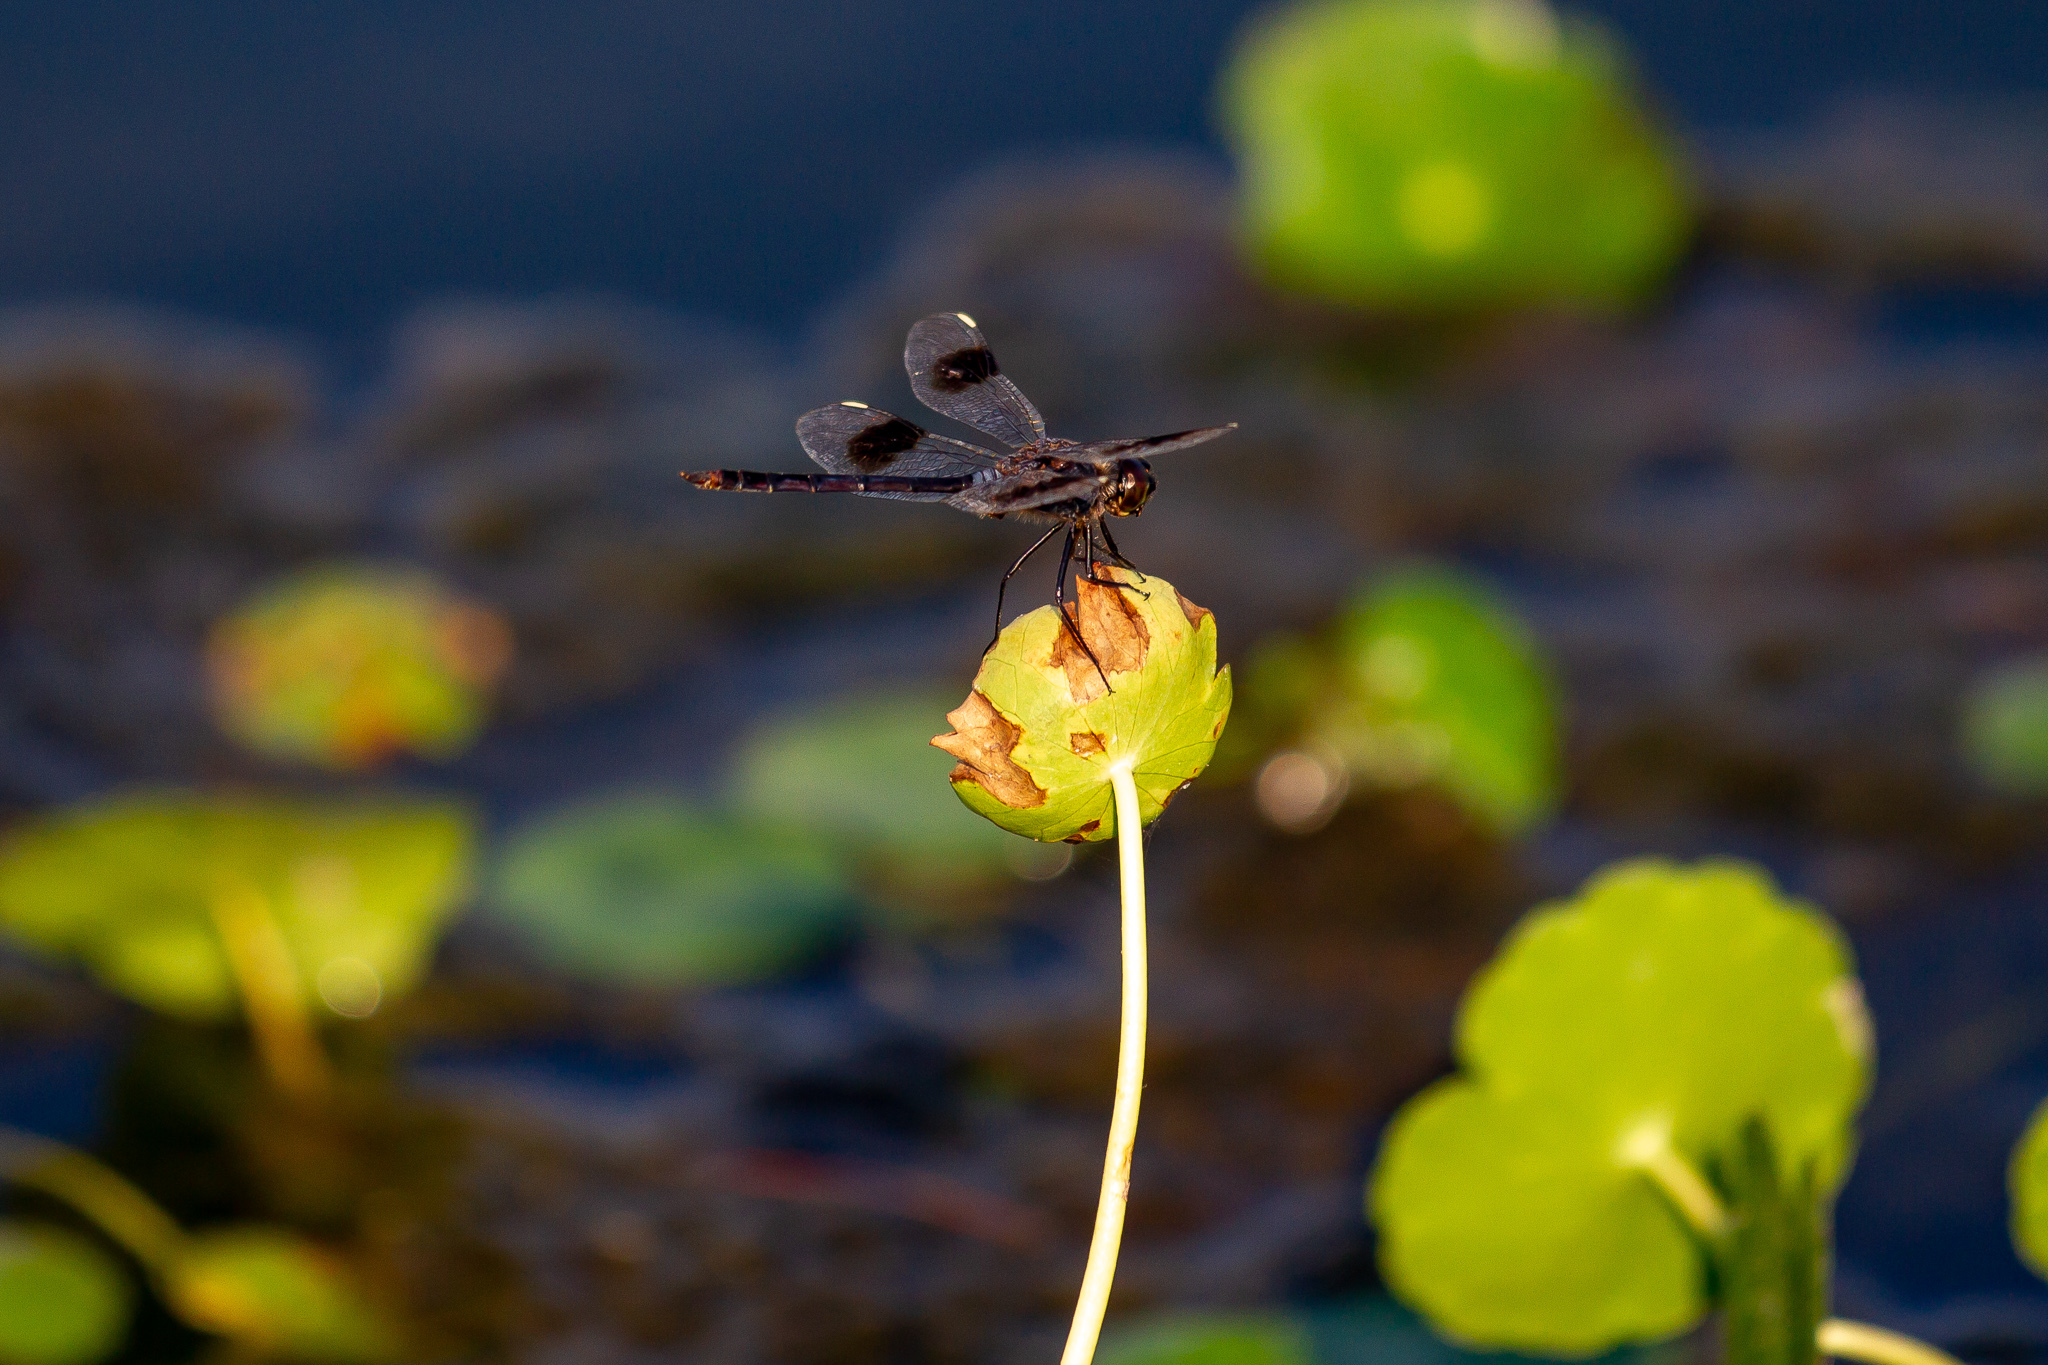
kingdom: Animalia
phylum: Arthropoda
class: Insecta
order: Odonata
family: Libellulidae
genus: Brachymesia
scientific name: Brachymesia gravida
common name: Four-spotted pennant
